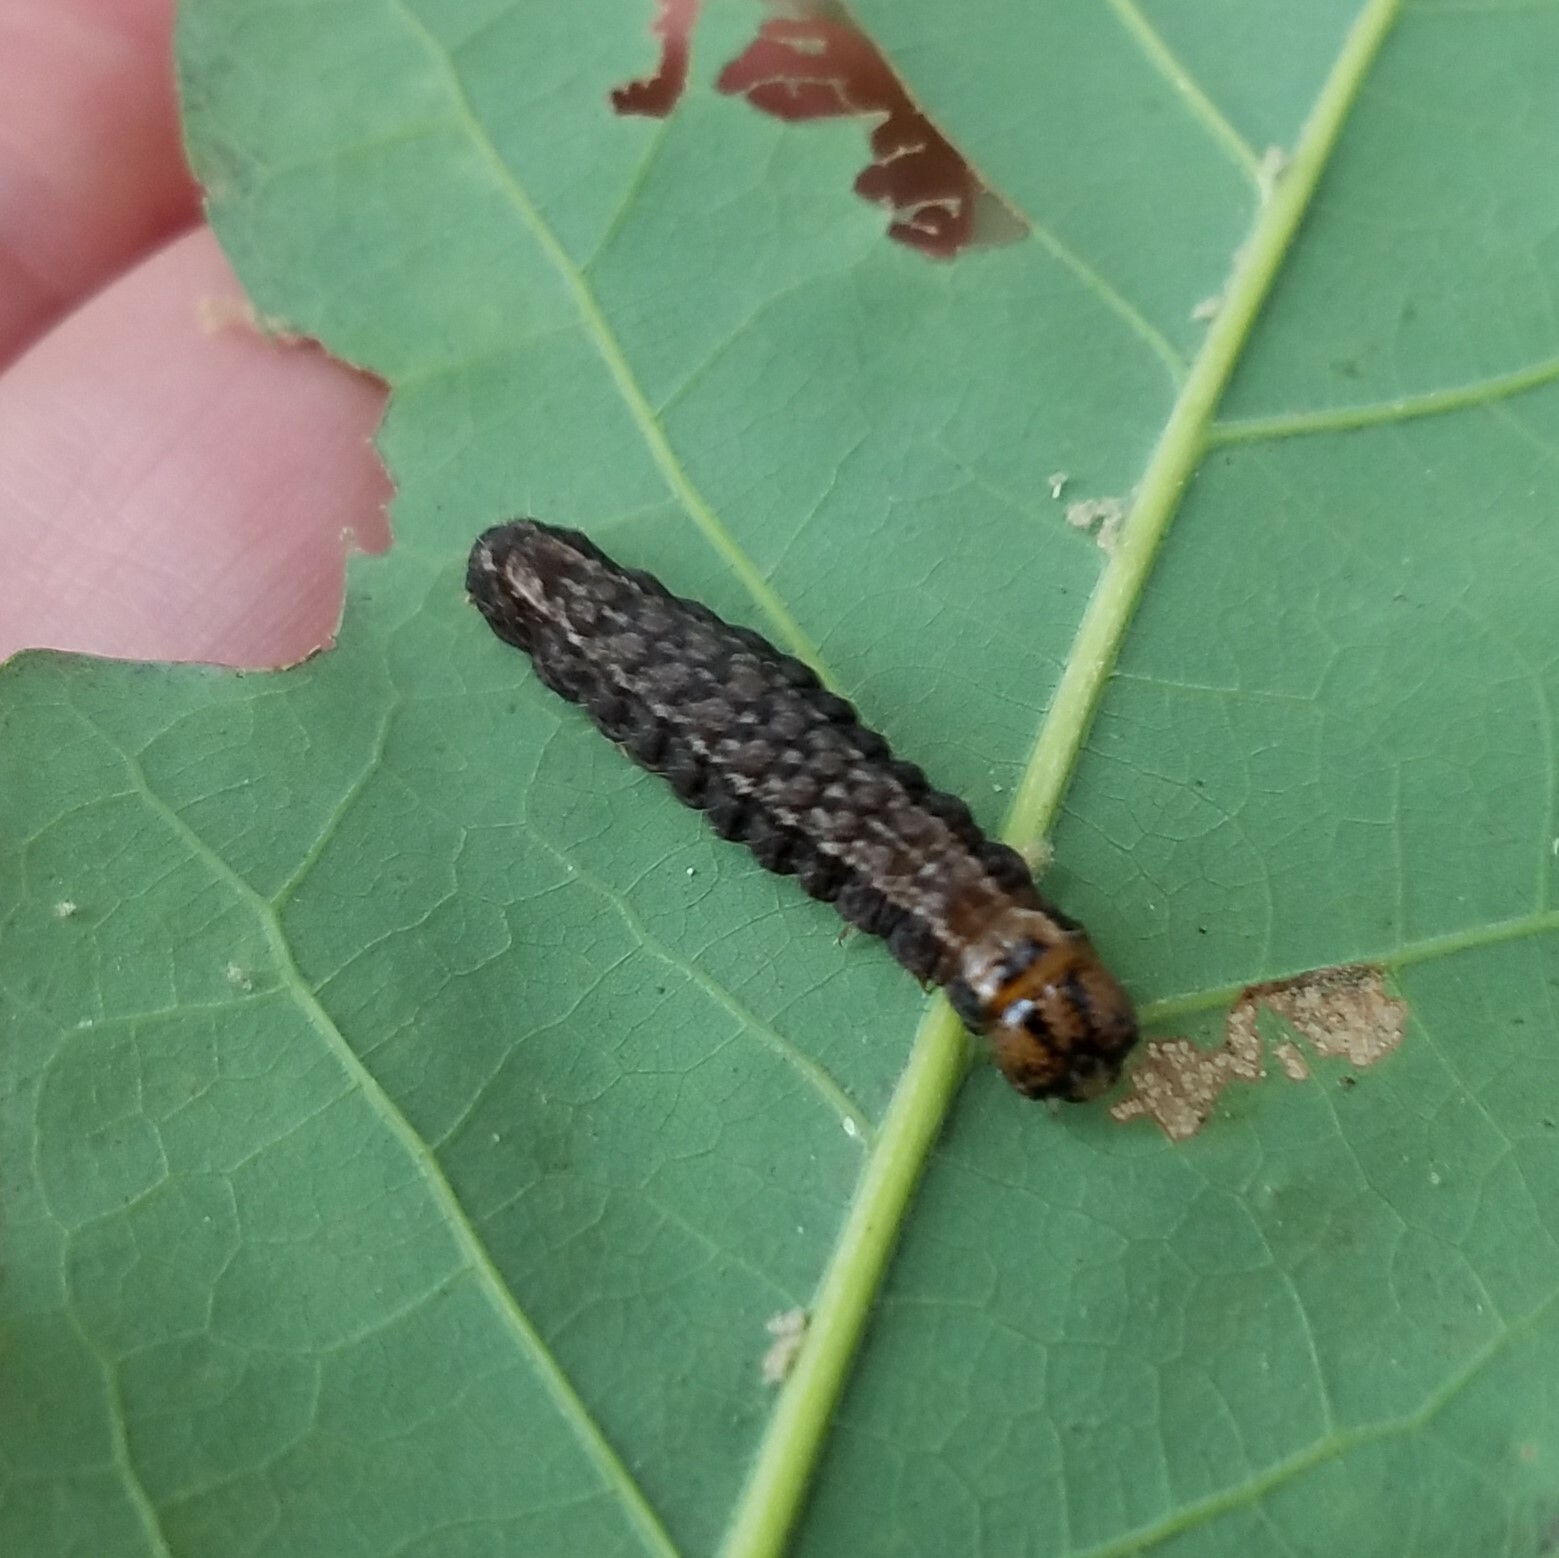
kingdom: Animalia
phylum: Arthropoda
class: Insecta
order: Lepidoptera
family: Noctuidae
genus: Acronicta
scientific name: Acronicta
